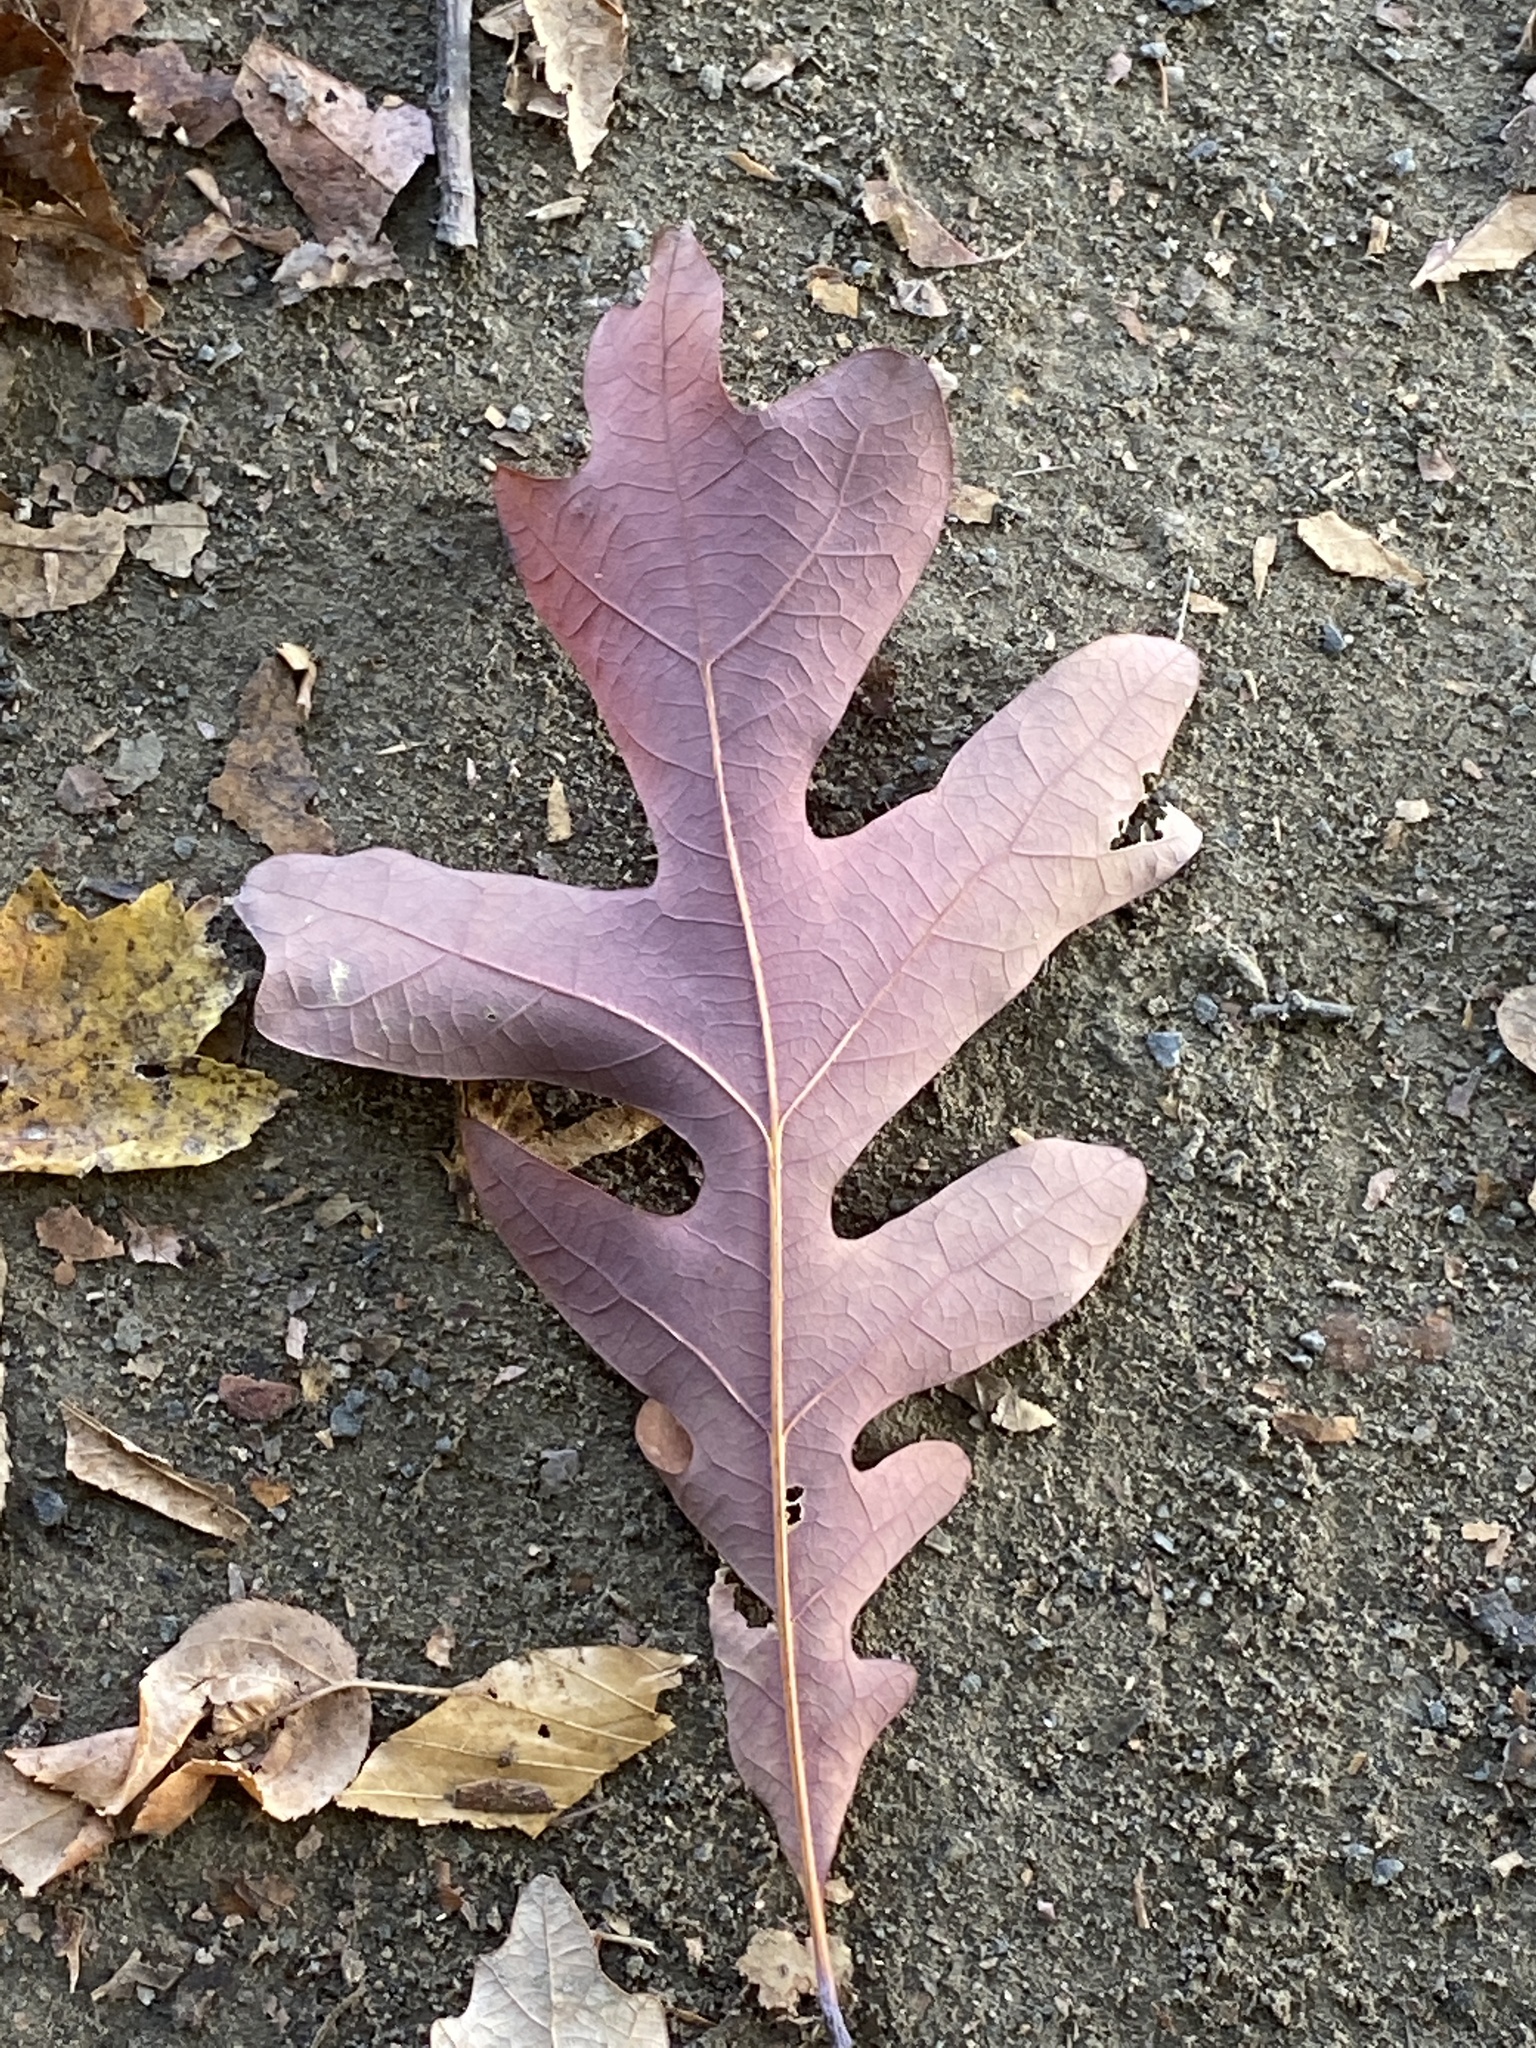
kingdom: Plantae
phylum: Tracheophyta
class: Magnoliopsida
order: Fagales
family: Fagaceae
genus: Quercus
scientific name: Quercus alba
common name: White oak
